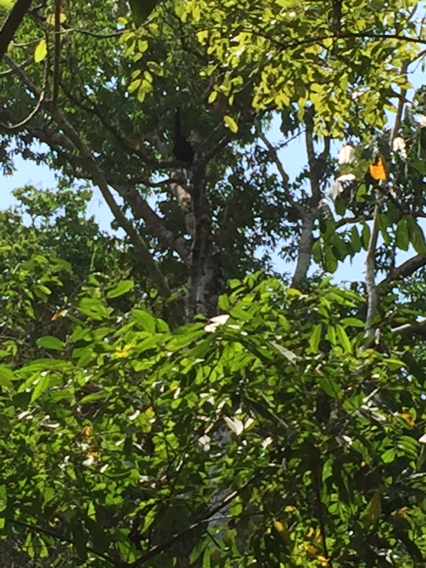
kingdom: Animalia
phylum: Chordata
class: Mammalia
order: Primates
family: Atelidae
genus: Ateles
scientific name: Ateles fusciceps
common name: Black-headed spider monkey
